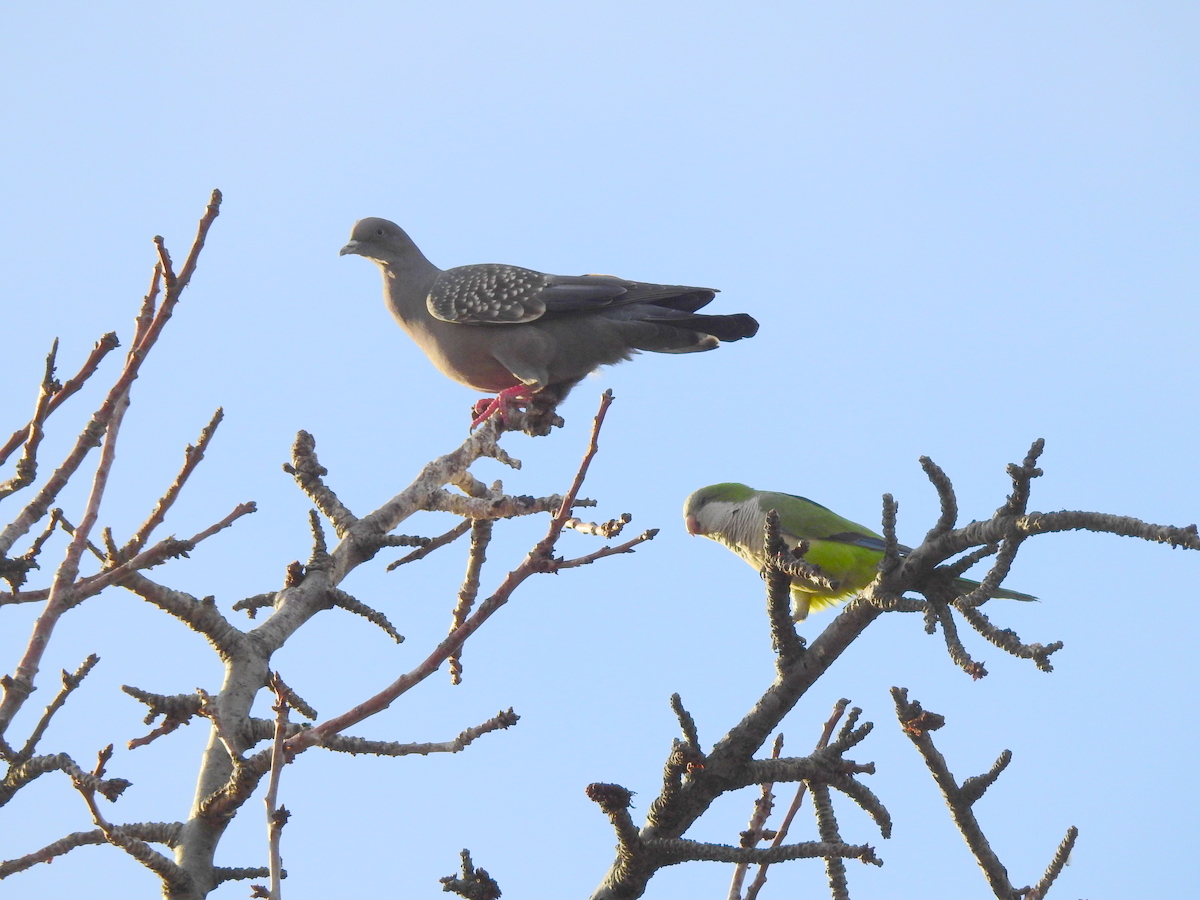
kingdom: Animalia
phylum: Chordata
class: Aves
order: Columbiformes
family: Columbidae
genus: Patagioenas
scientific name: Patagioenas maculosa
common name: Spot-winged pigeon
